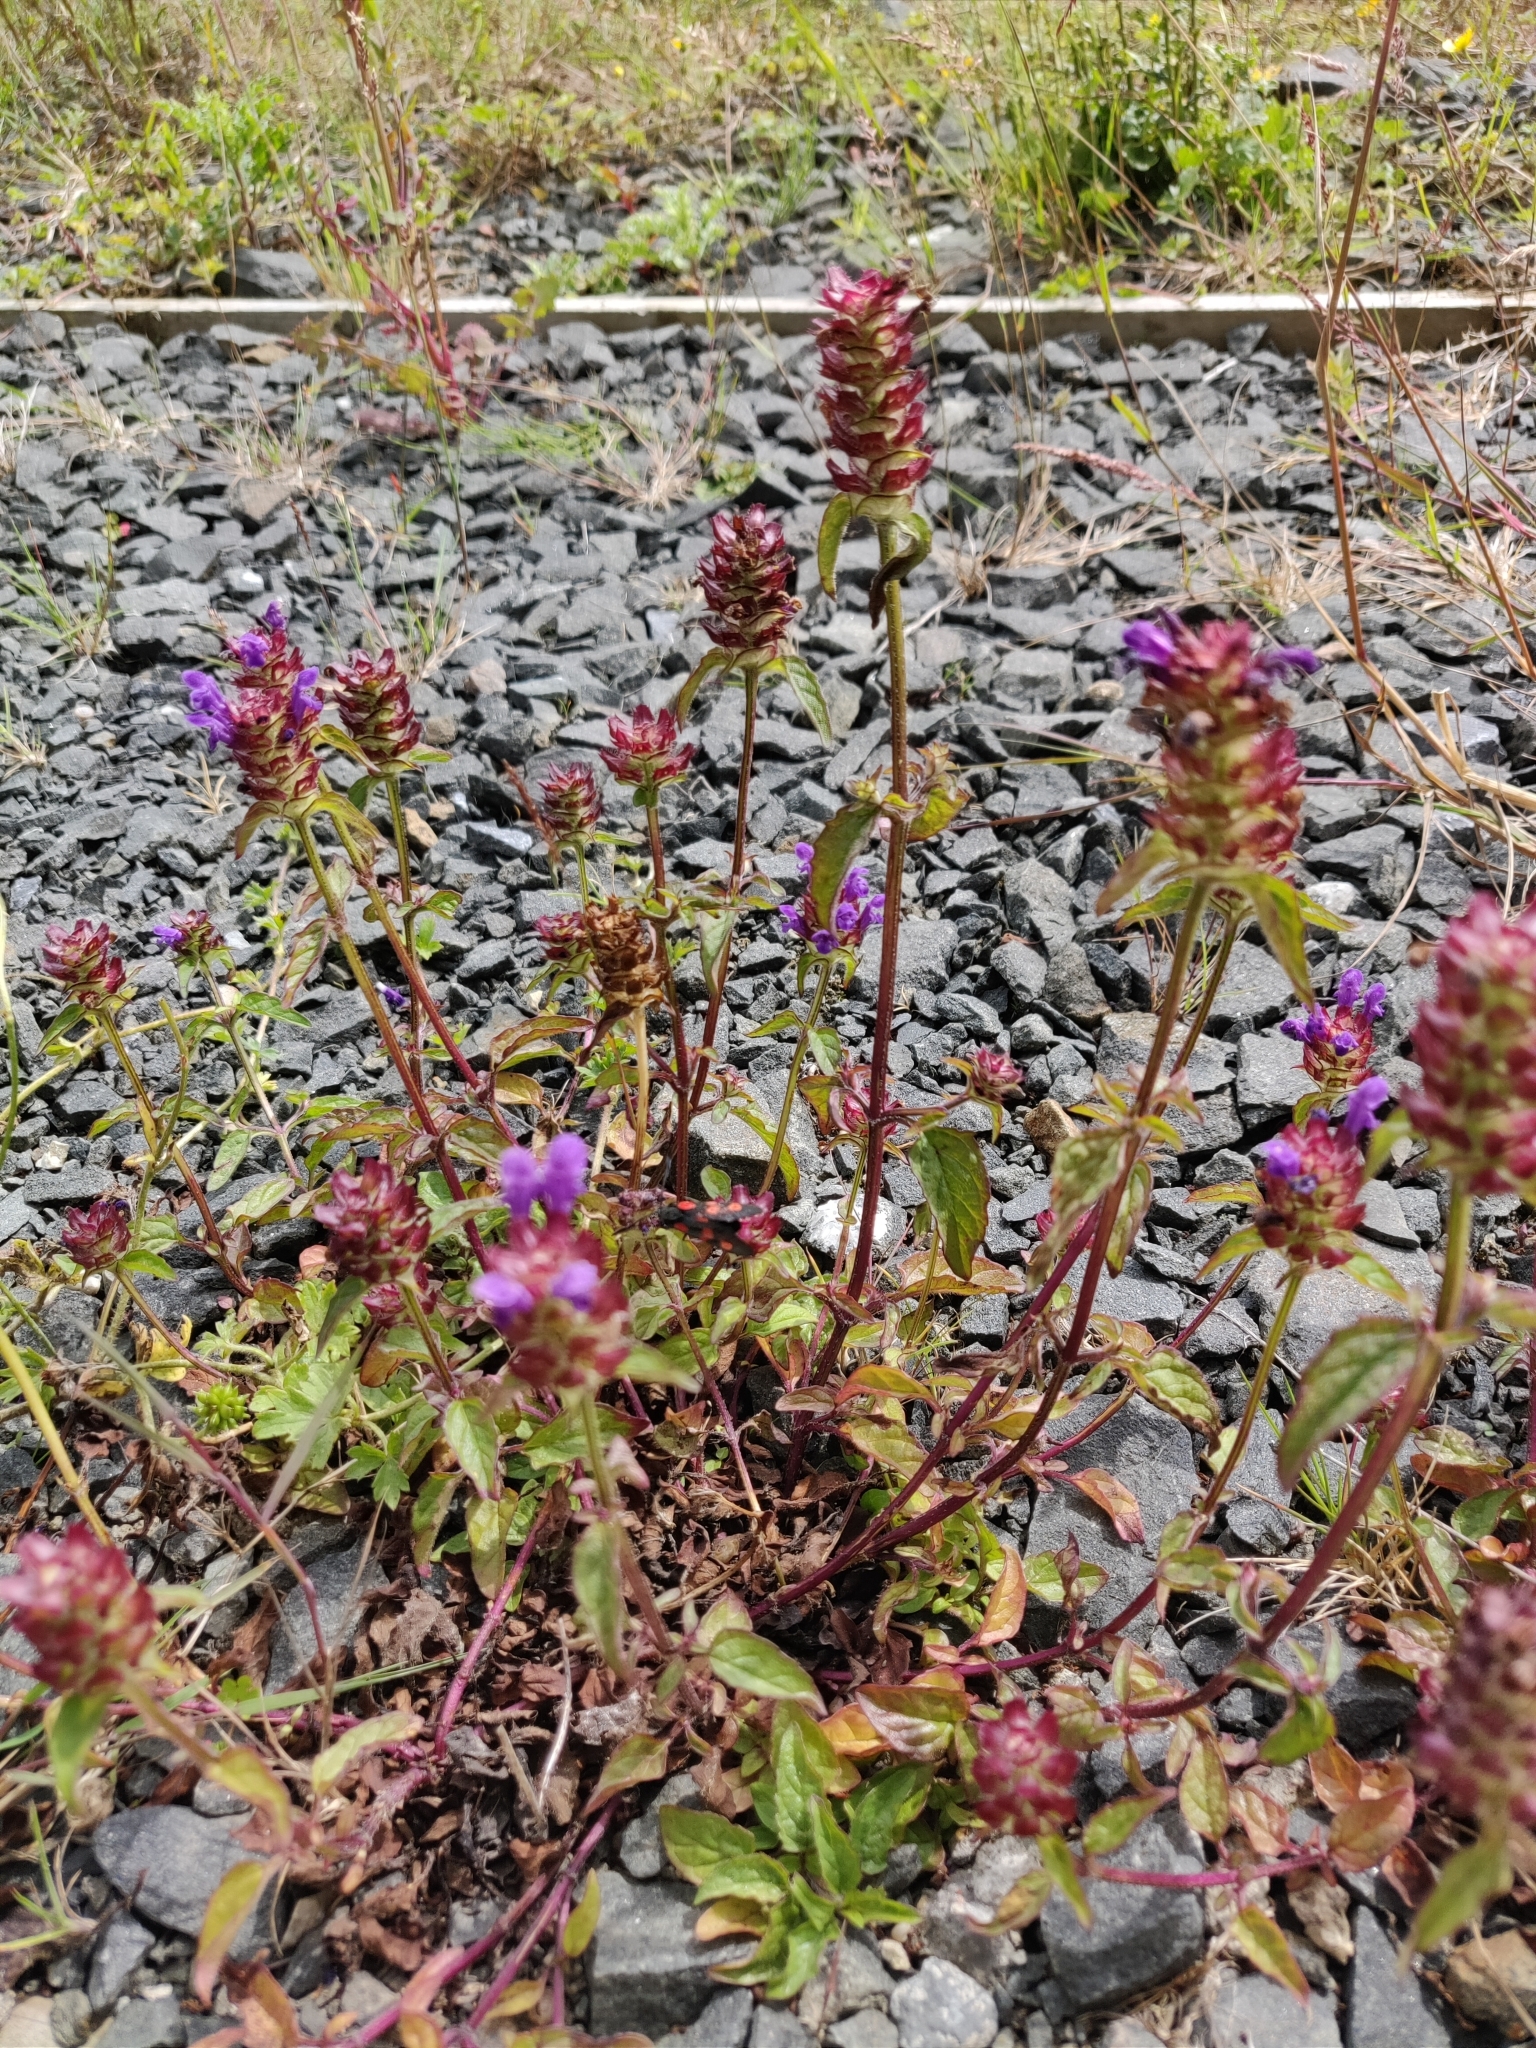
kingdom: Plantae
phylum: Tracheophyta
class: Magnoliopsida
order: Lamiales
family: Lamiaceae
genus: Prunella
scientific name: Prunella vulgaris
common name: Heal-all
